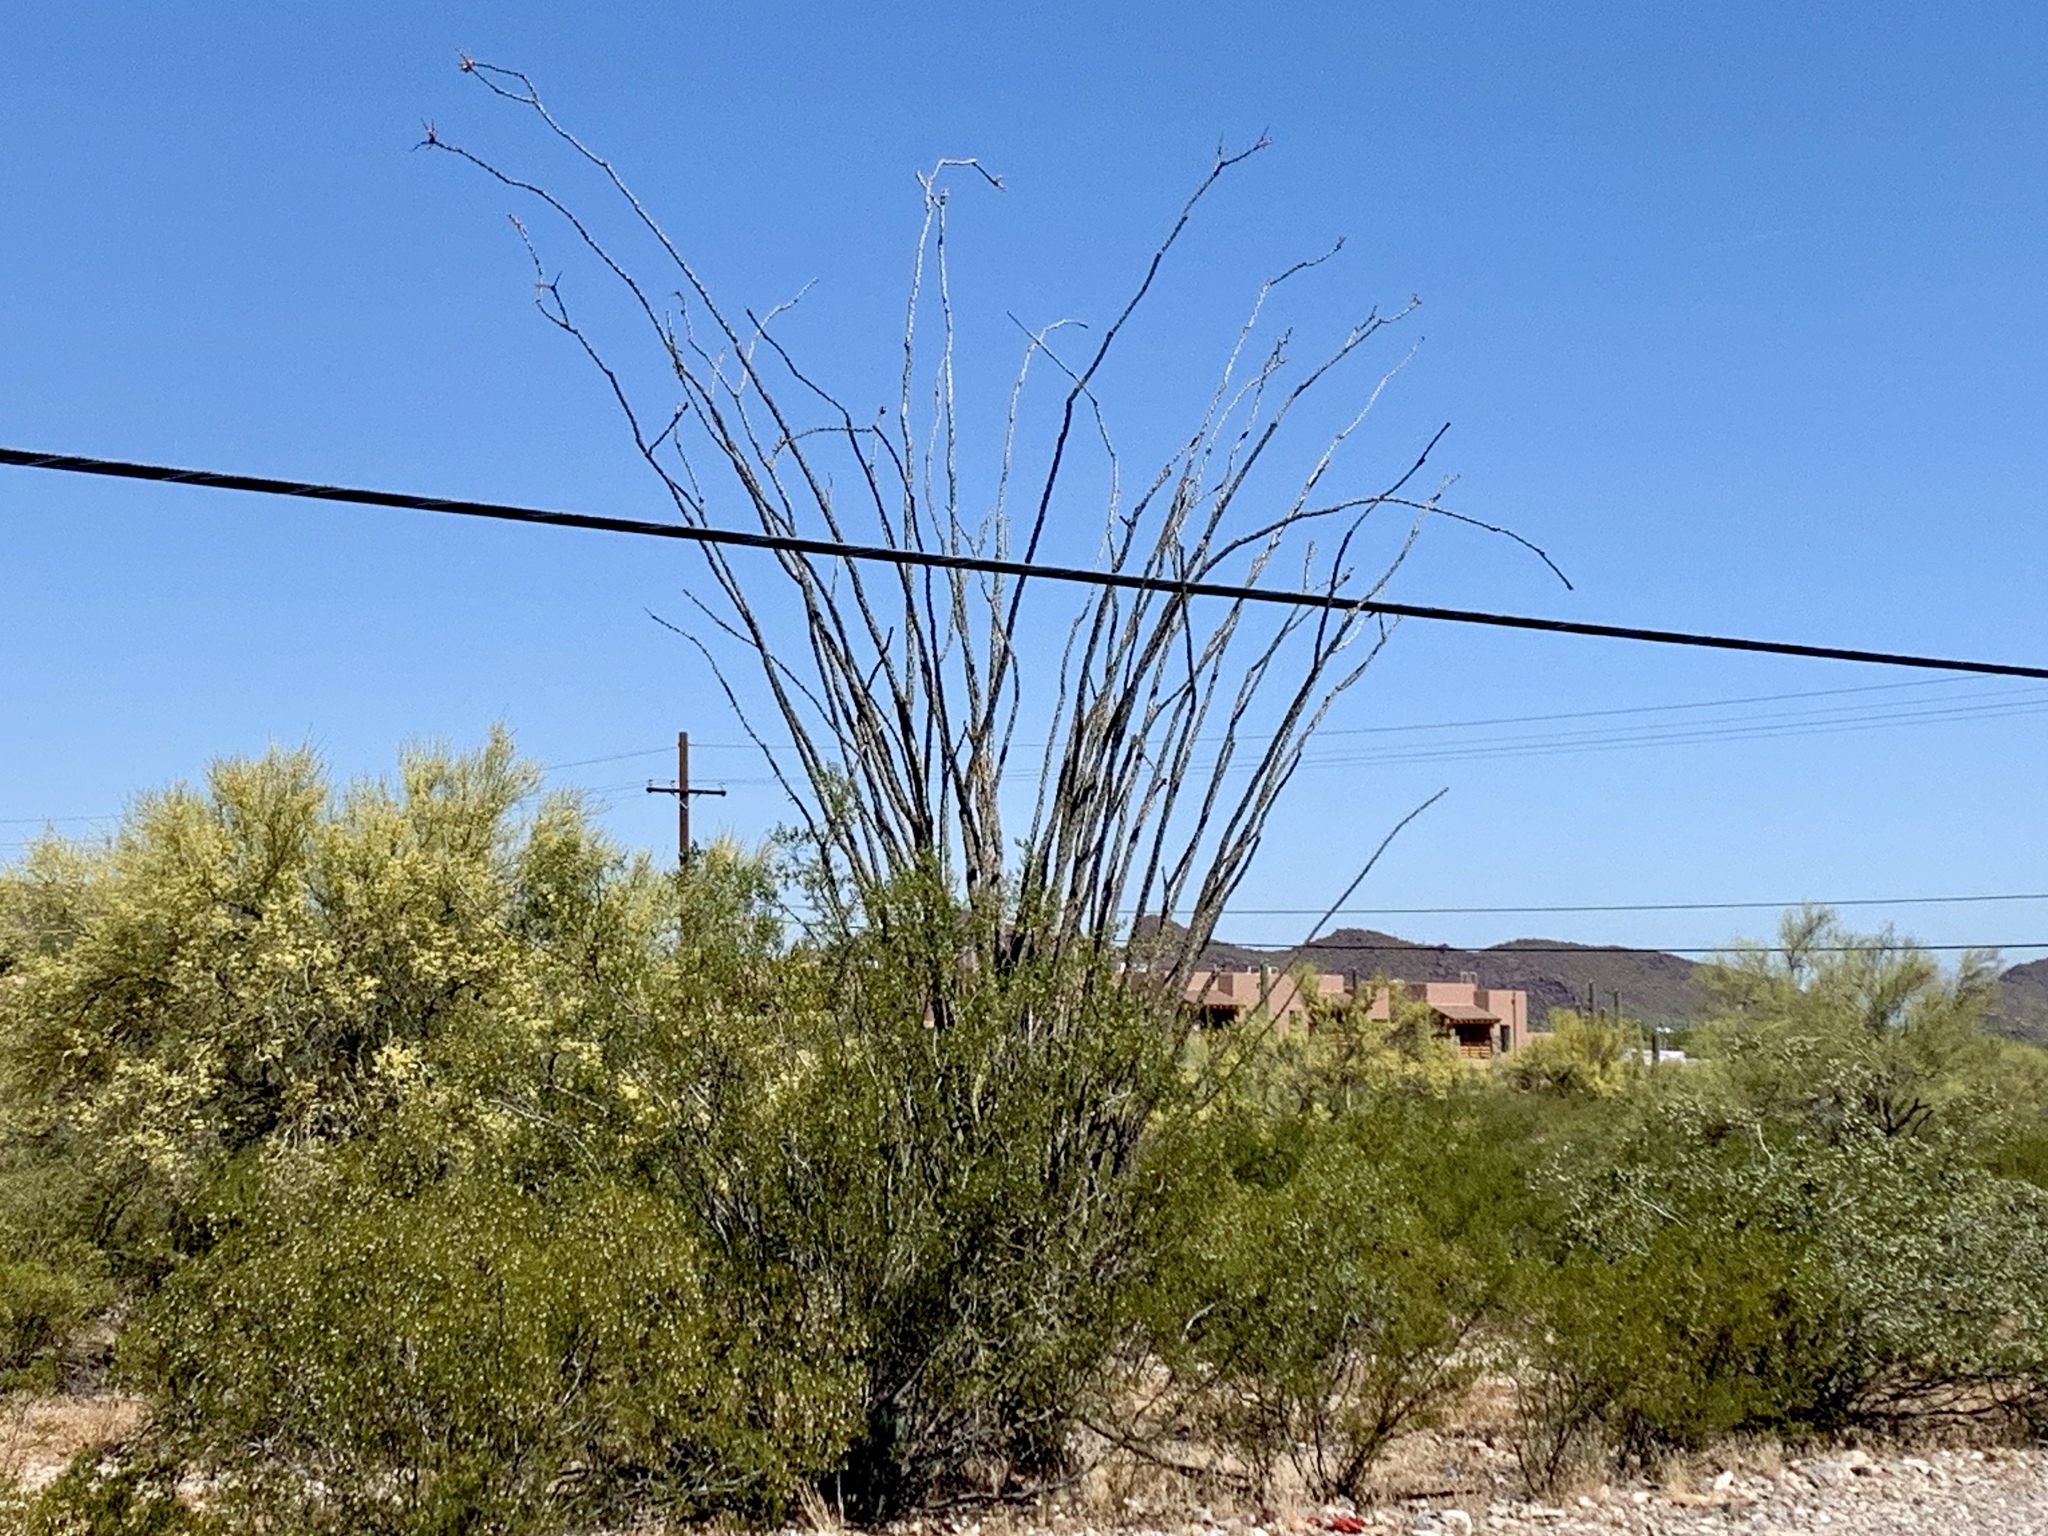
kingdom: Plantae
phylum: Tracheophyta
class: Magnoliopsida
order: Ericales
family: Fouquieriaceae
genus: Fouquieria
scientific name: Fouquieria splendens
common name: Vine-cactus
